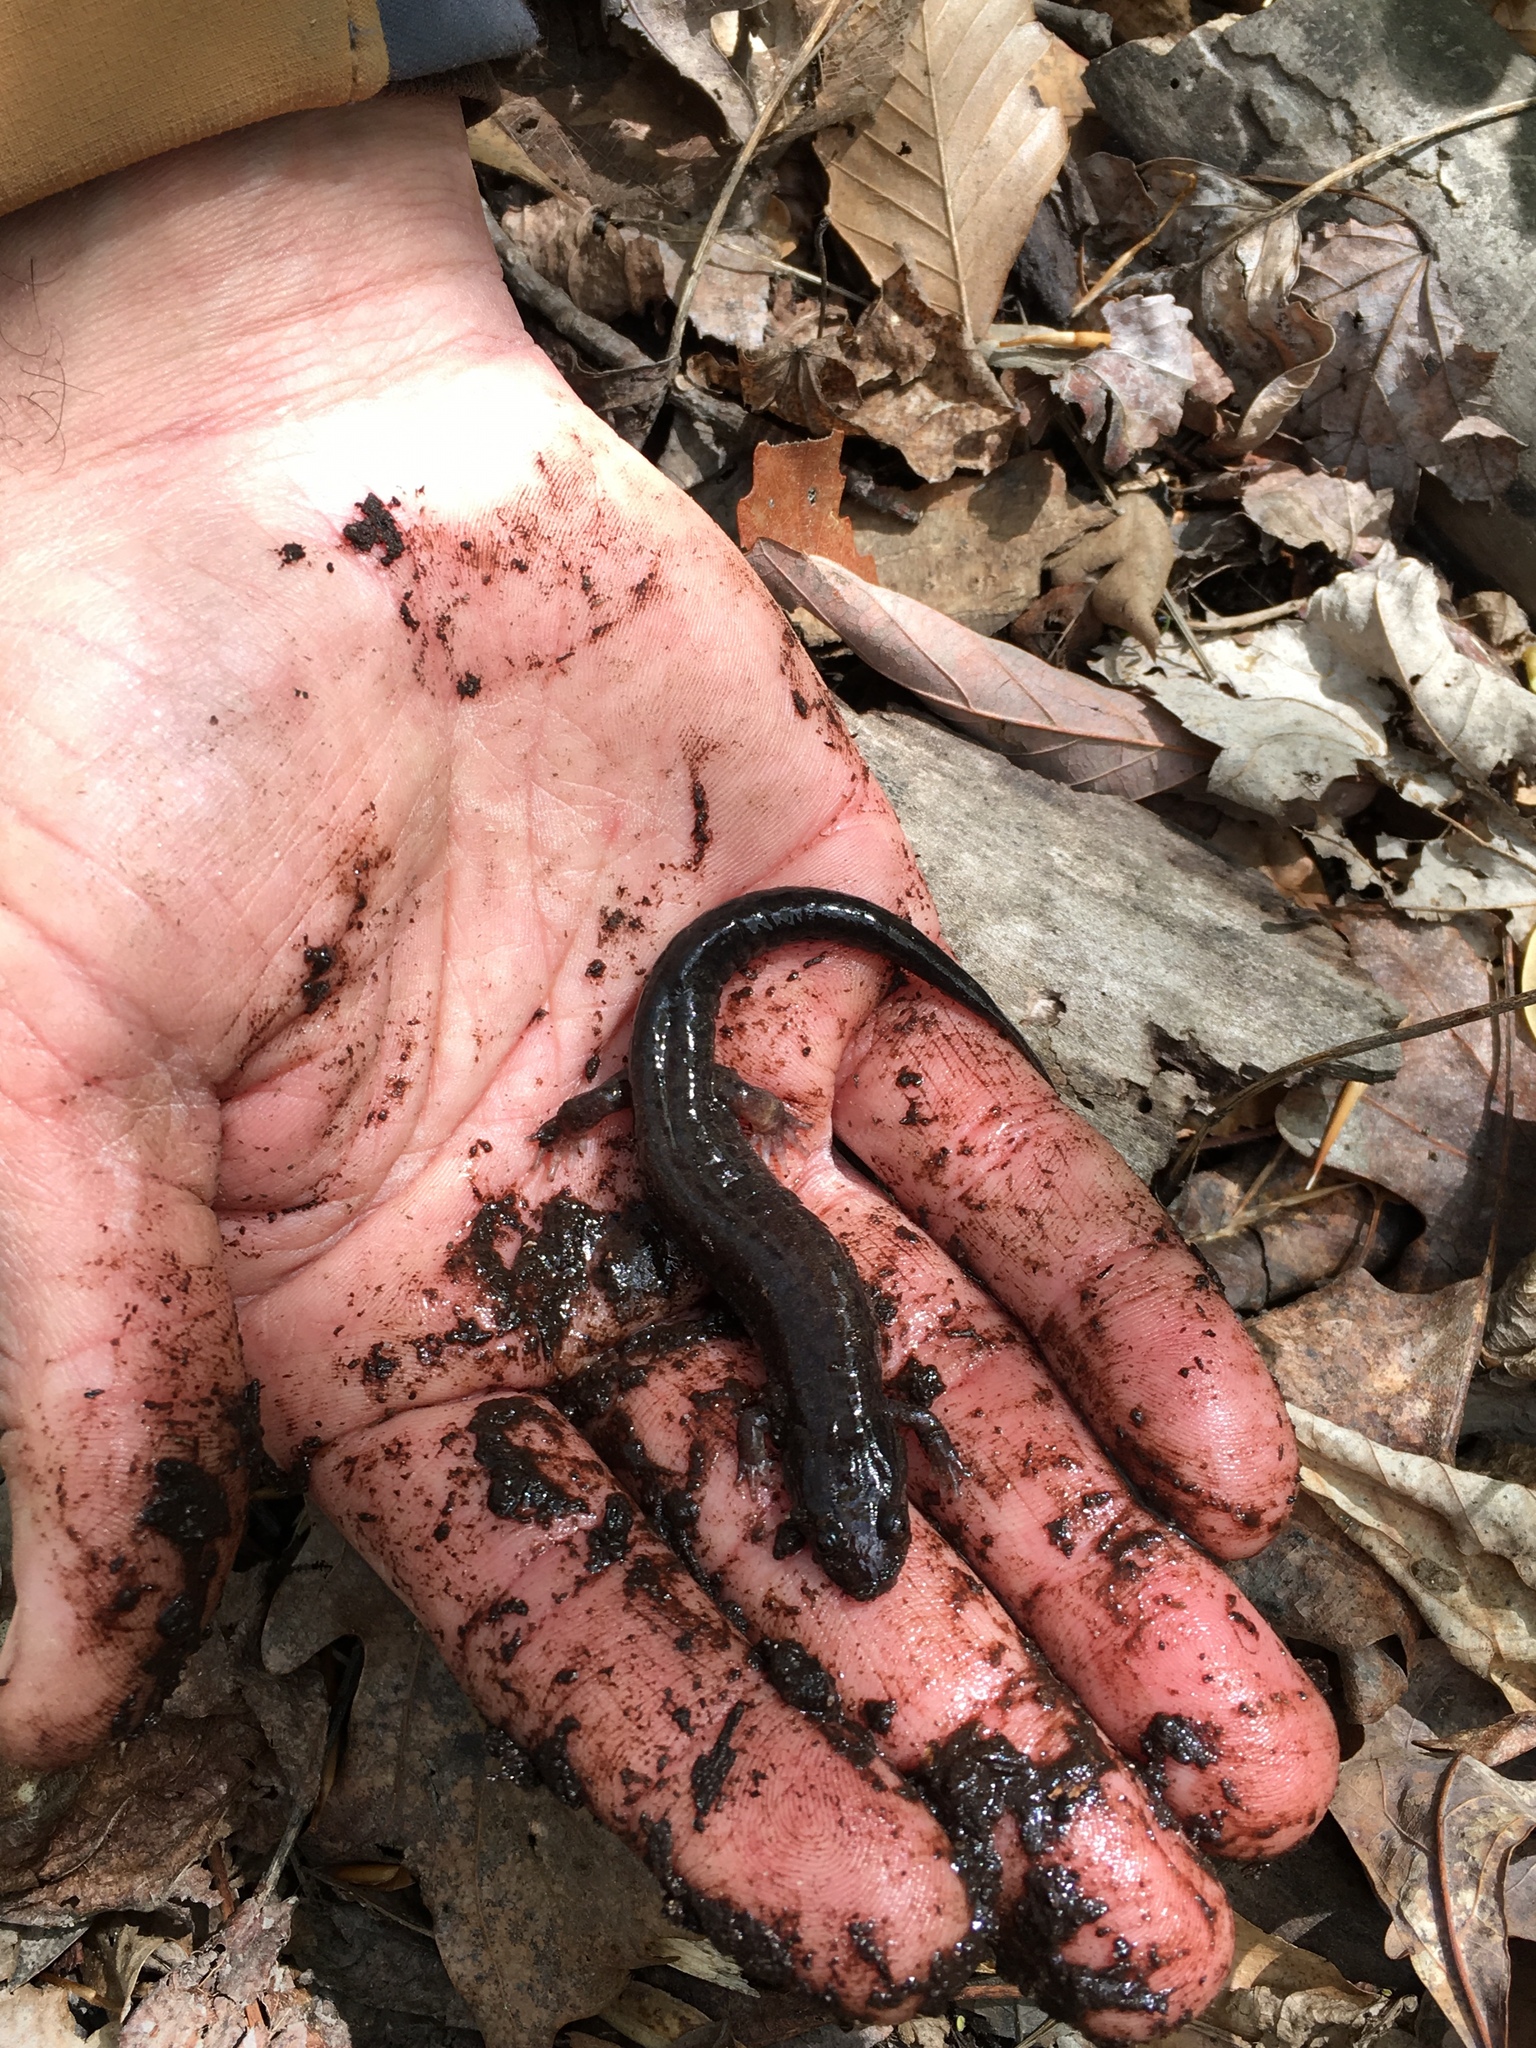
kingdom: Animalia
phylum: Chordata
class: Amphibia
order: Caudata
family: Plethodontidae
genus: Desmognathus
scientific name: Desmognathus fuscus
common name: Northern dusky salamander
